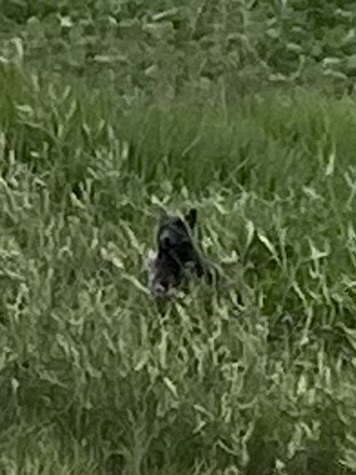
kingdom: Animalia
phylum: Chordata
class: Mammalia
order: Carnivora
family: Ursidae
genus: Ursus
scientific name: Ursus americanus
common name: American black bear
